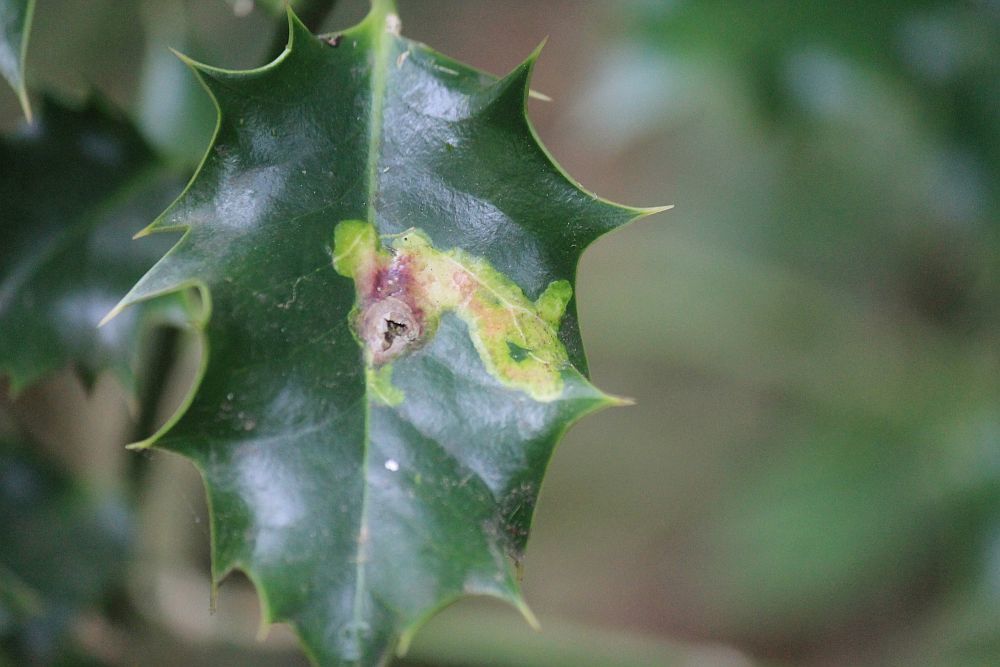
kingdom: Animalia
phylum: Arthropoda
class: Insecta
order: Diptera
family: Agromyzidae
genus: Phytomyza
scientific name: Phytomyza ilicis
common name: Holly leafminer
